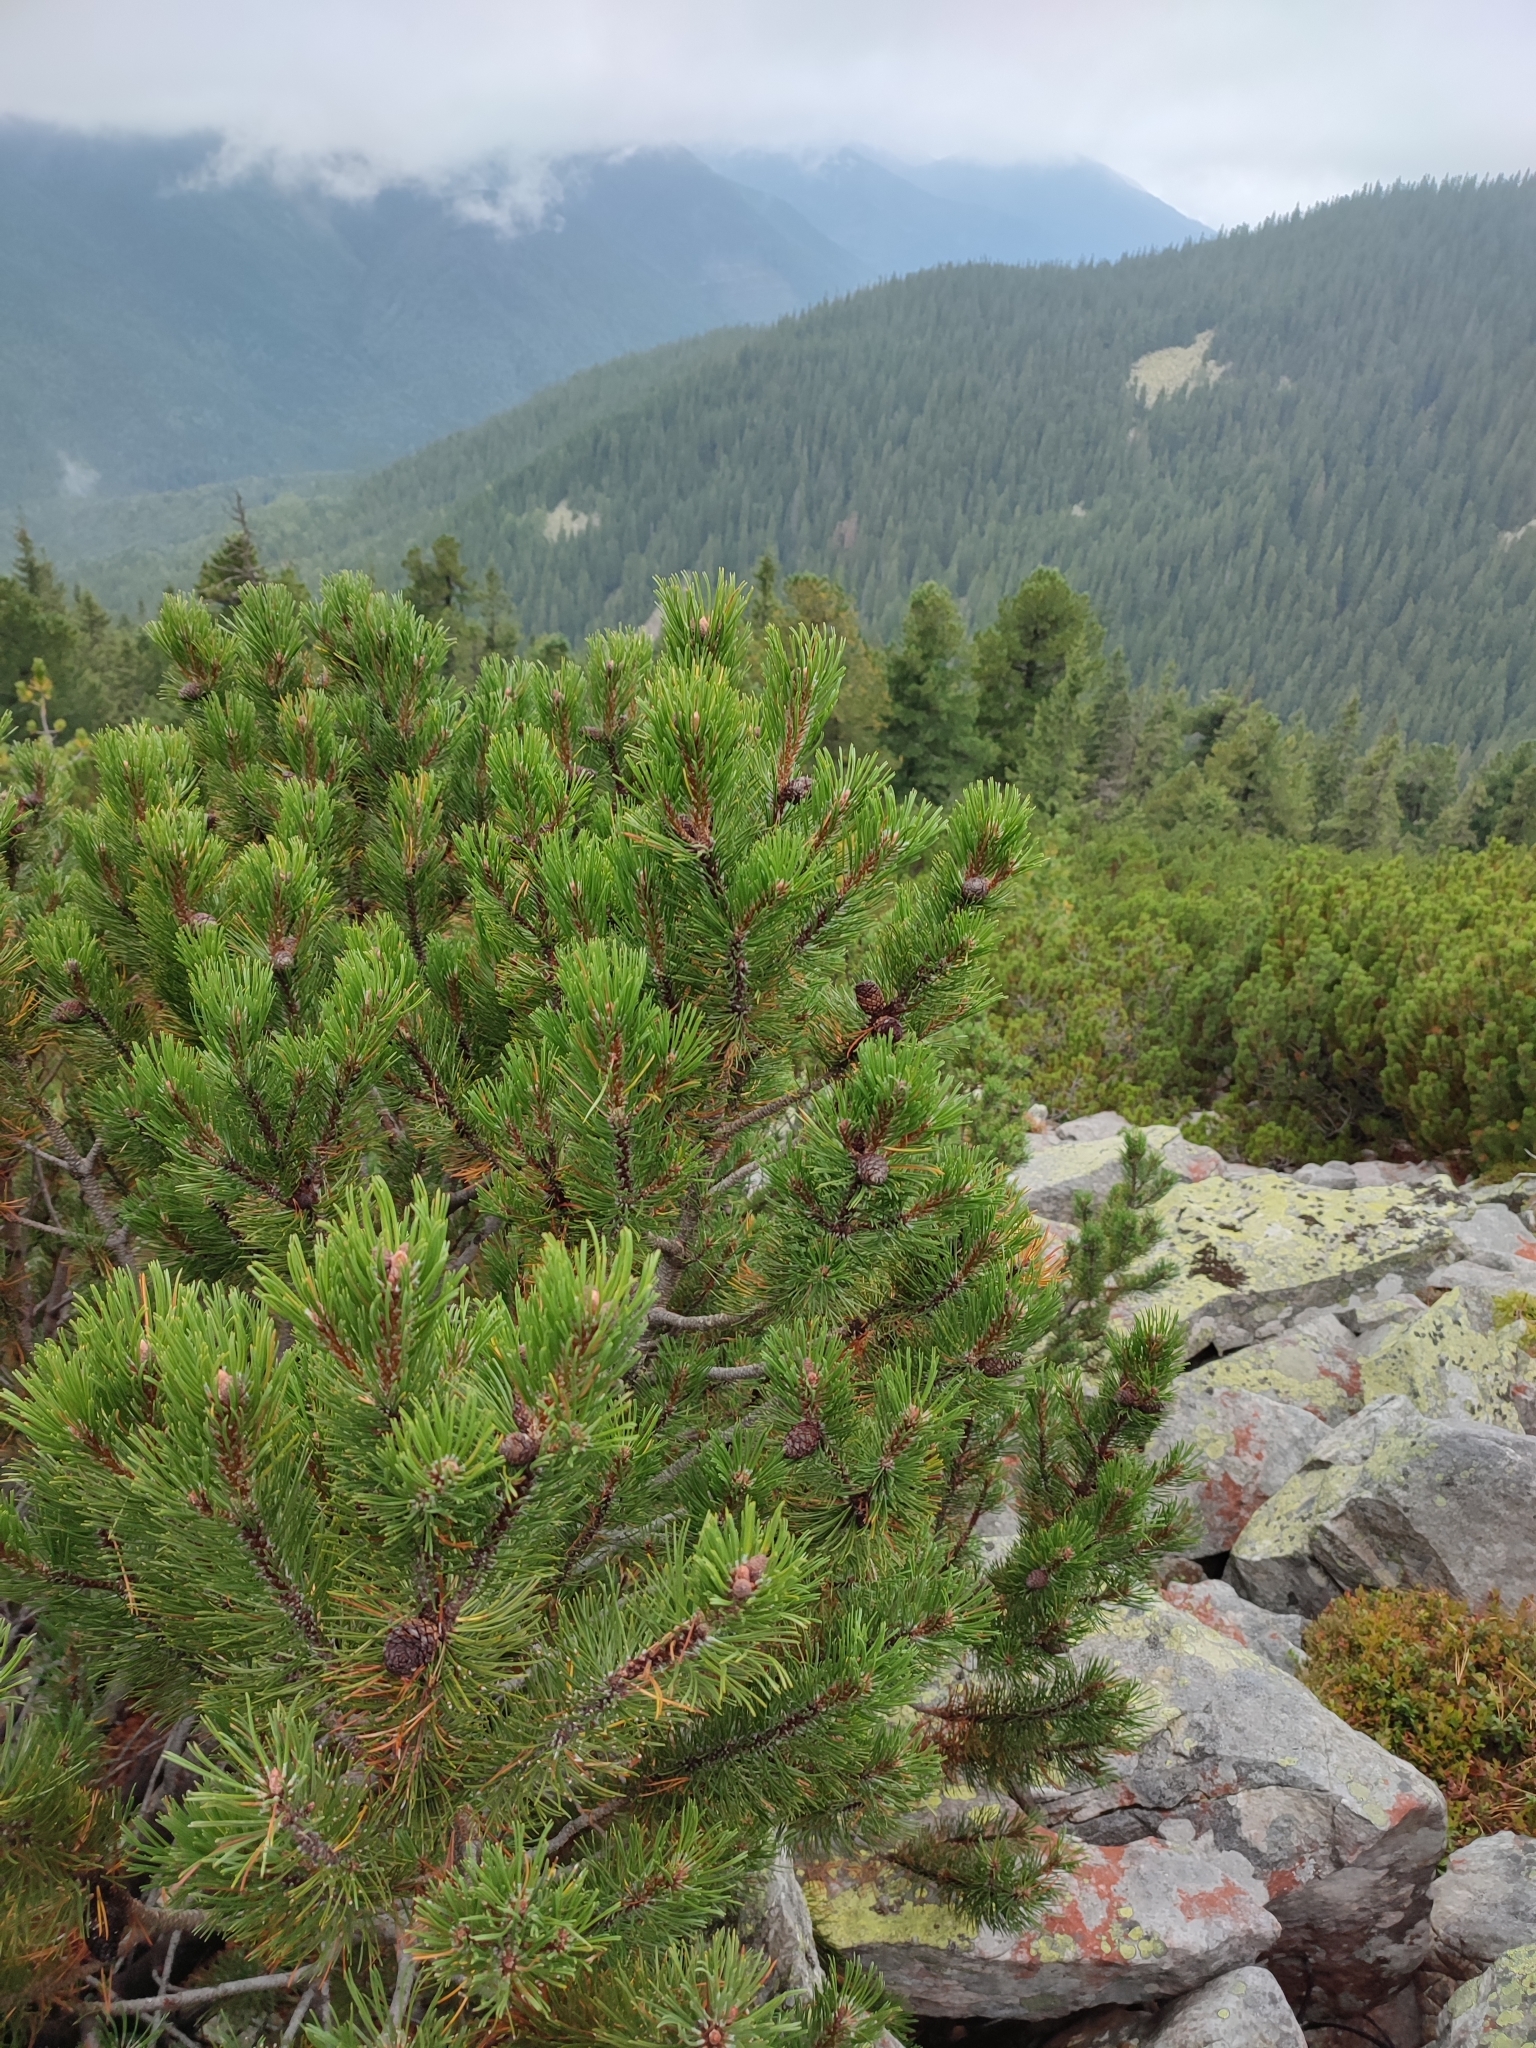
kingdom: Plantae
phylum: Tracheophyta
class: Pinopsida
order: Pinales
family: Pinaceae
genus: Pinus
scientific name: Pinus mugo
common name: Mugo pine
